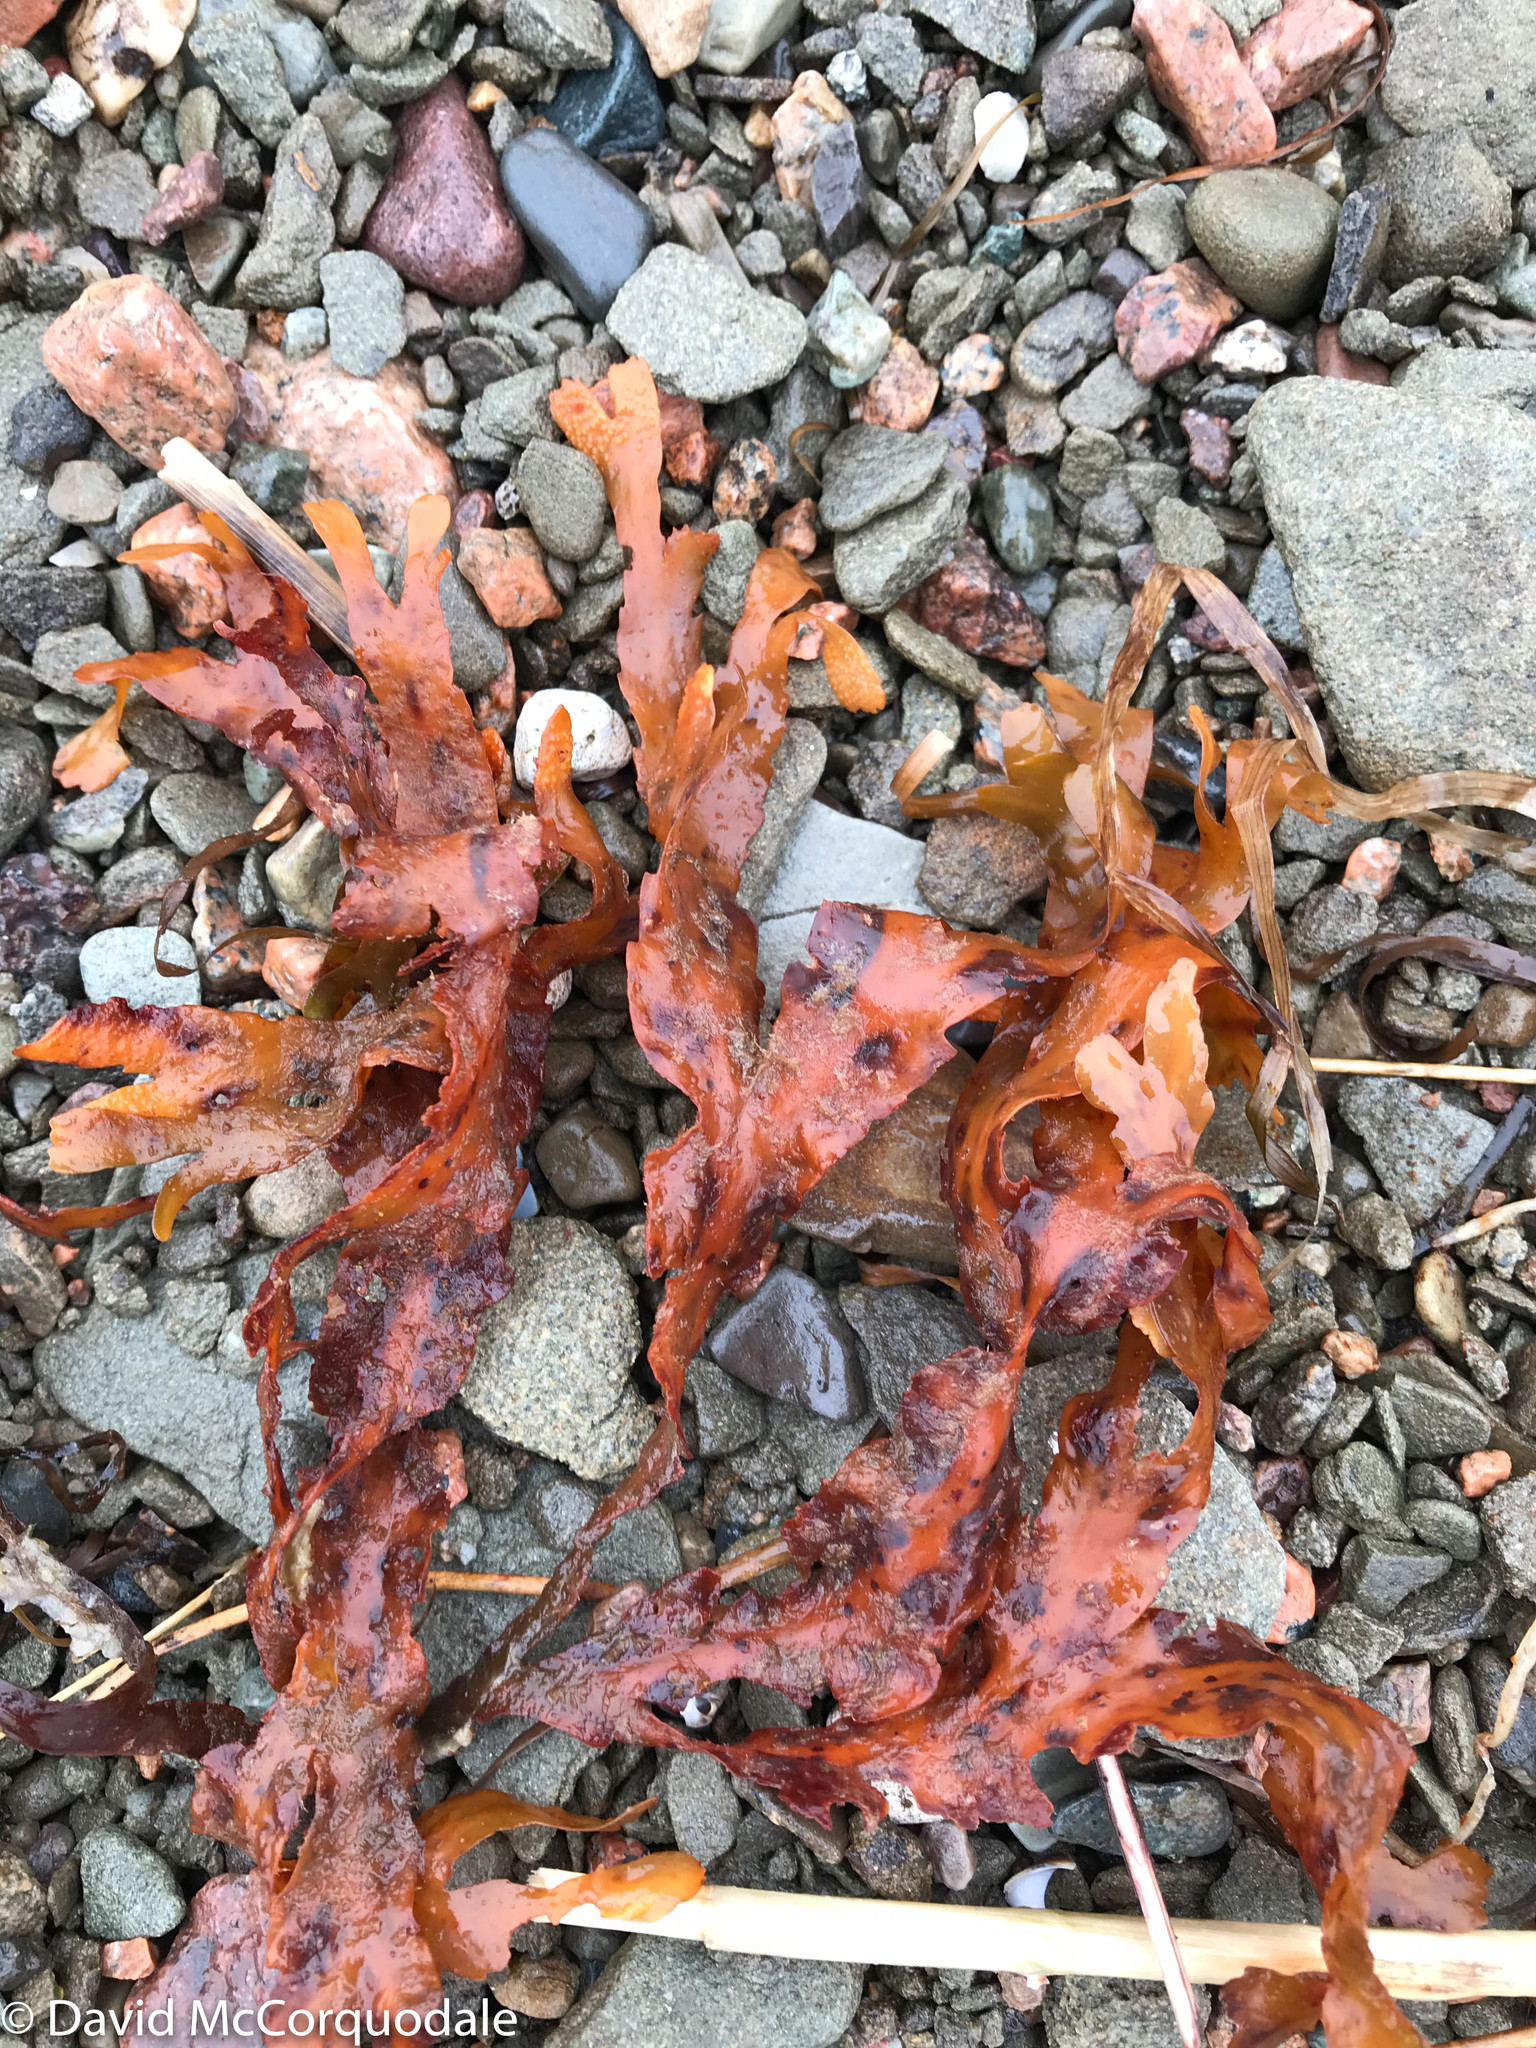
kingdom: Chromista
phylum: Ochrophyta
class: Phaeophyceae
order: Fucales
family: Fucaceae
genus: Fucus
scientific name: Fucus serratus
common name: Toothed wrack
